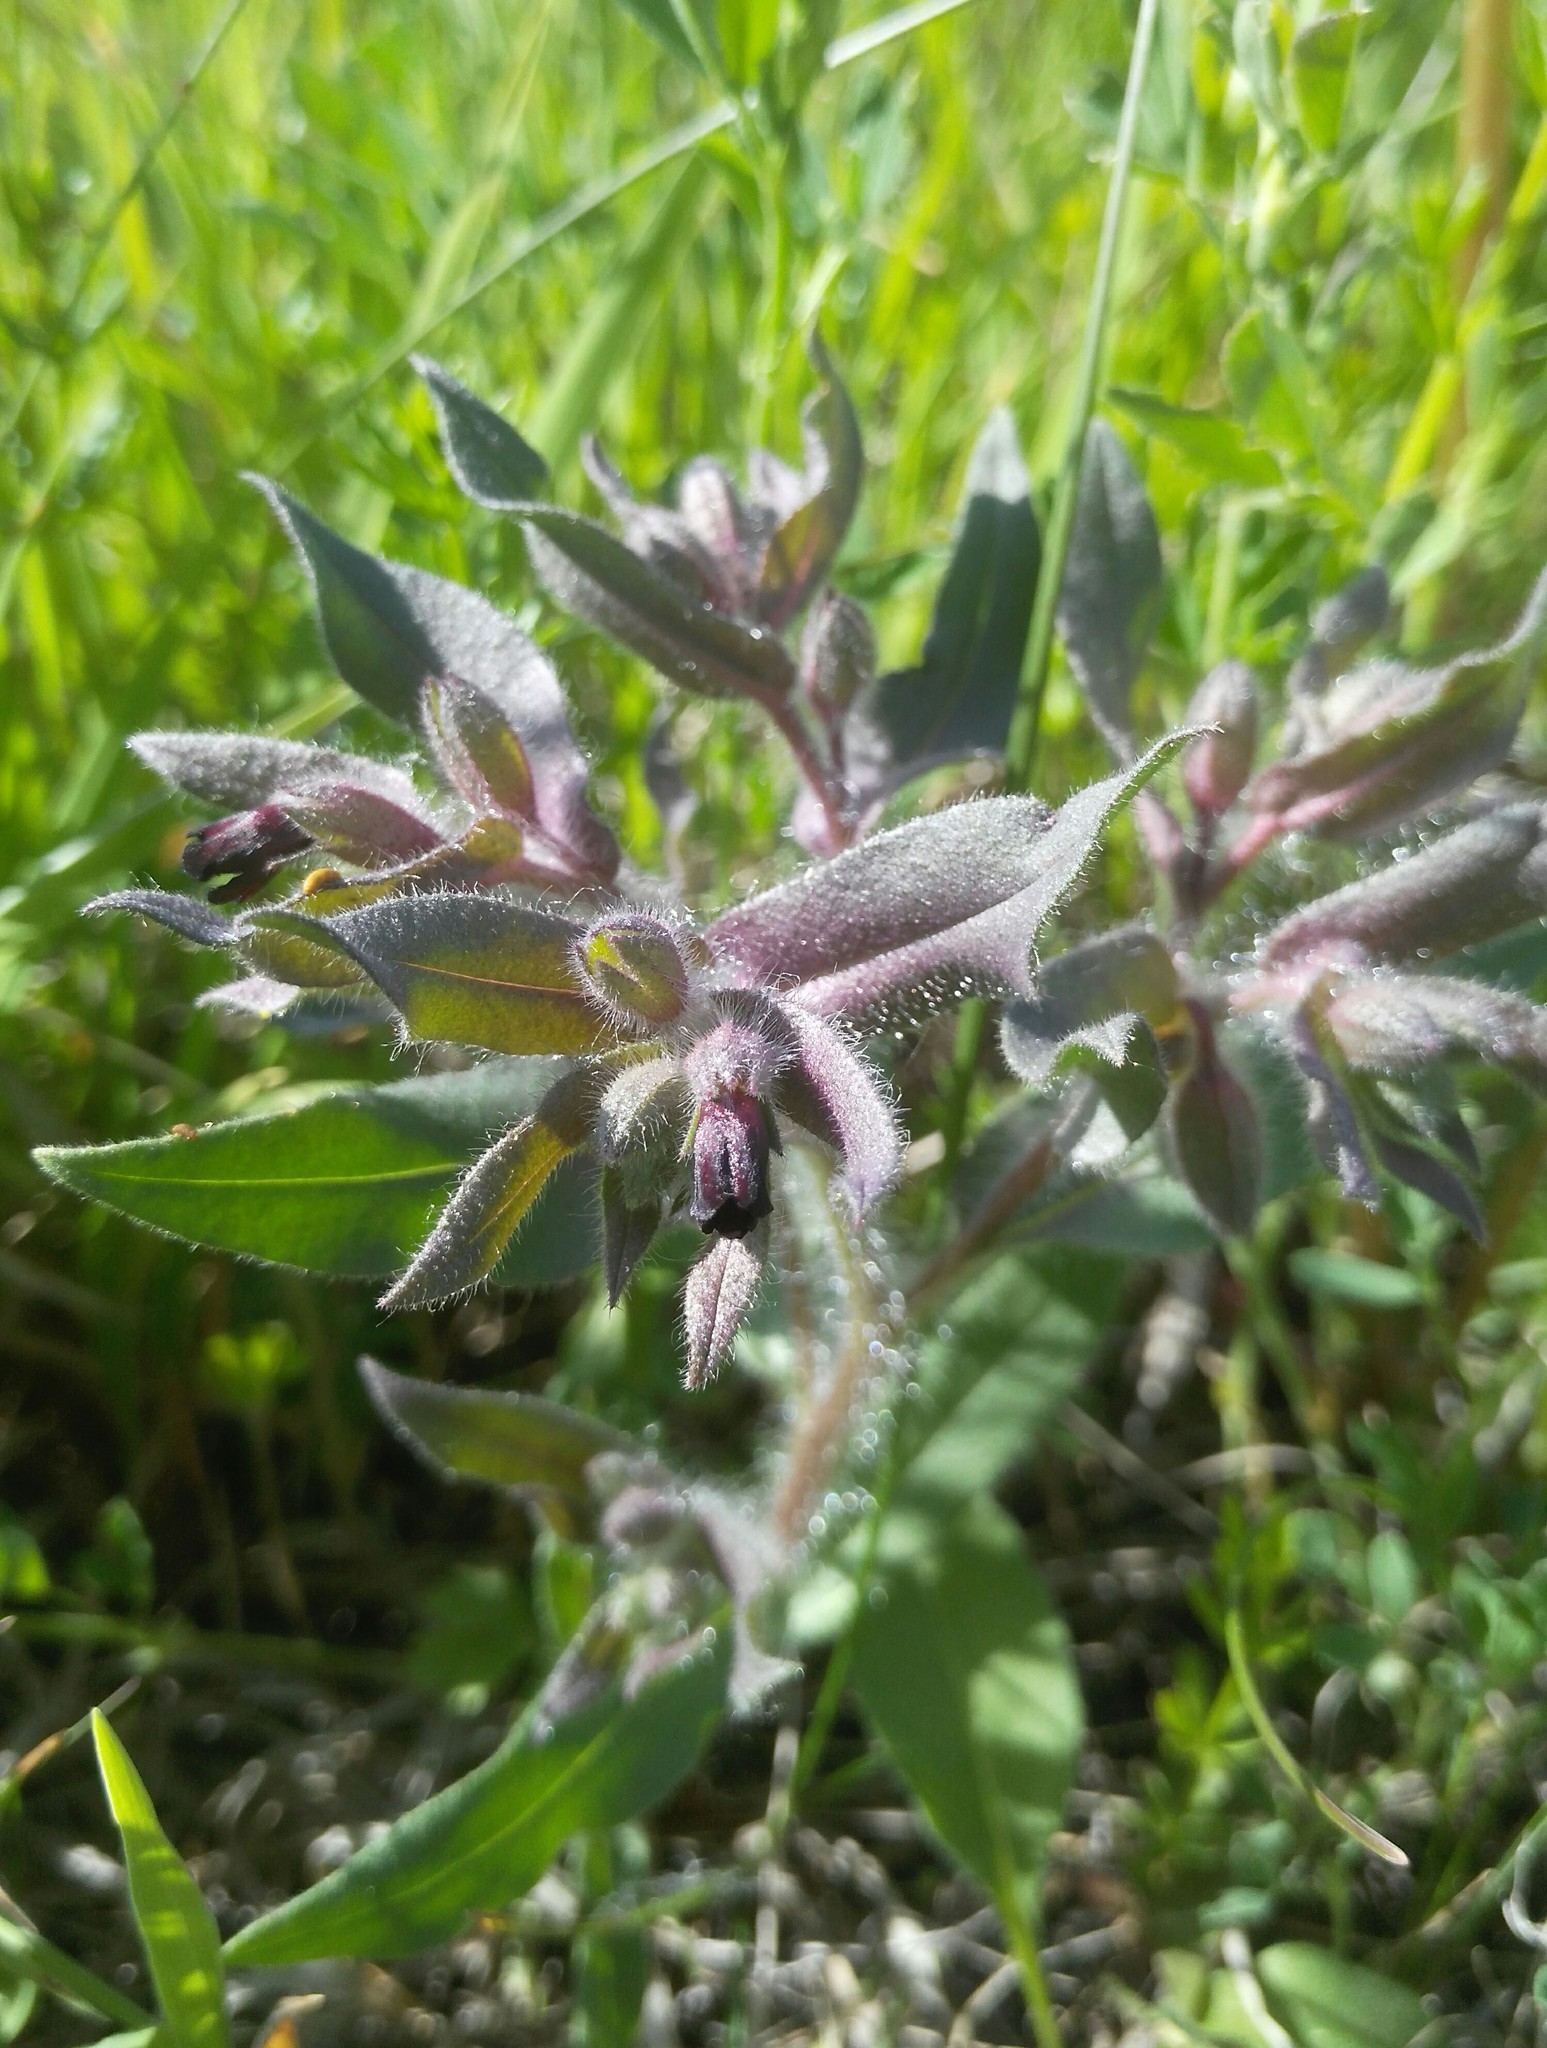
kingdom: Plantae
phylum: Tracheophyta
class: Magnoliopsida
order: Boraginales
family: Boraginaceae
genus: Nonea
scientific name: Nonea pulla
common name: Brown nonea
